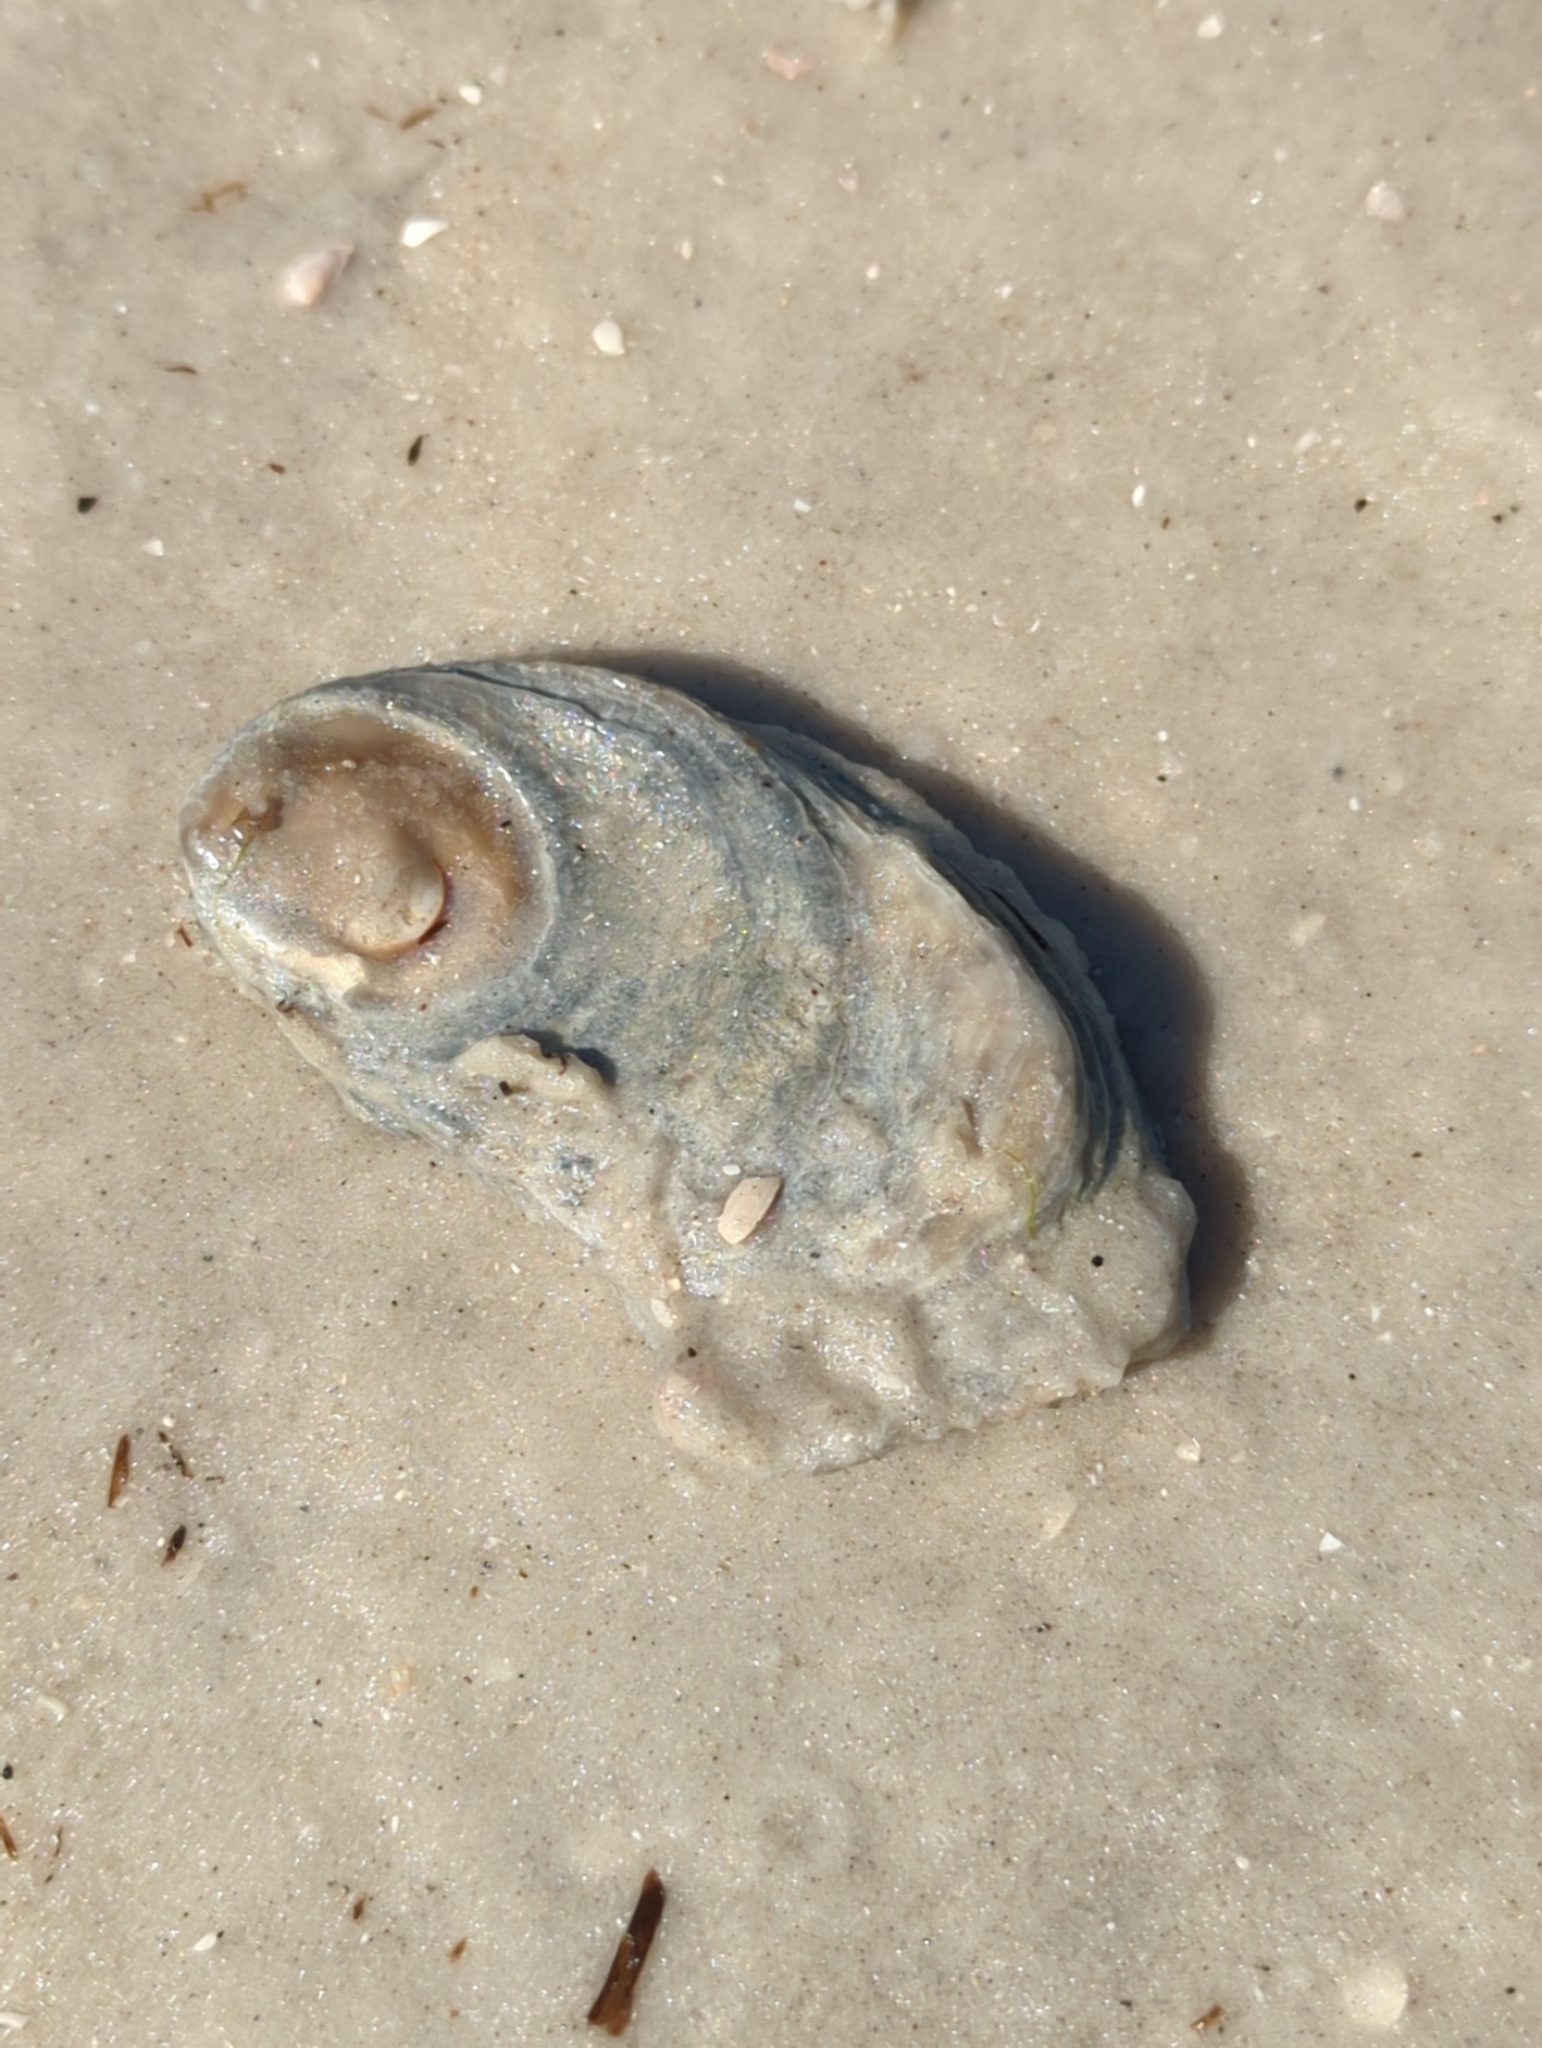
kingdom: Animalia
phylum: Mollusca
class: Bivalvia
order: Ostreida
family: Ostreidae
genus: Crassostrea
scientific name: Crassostrea virginica
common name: American oyster
